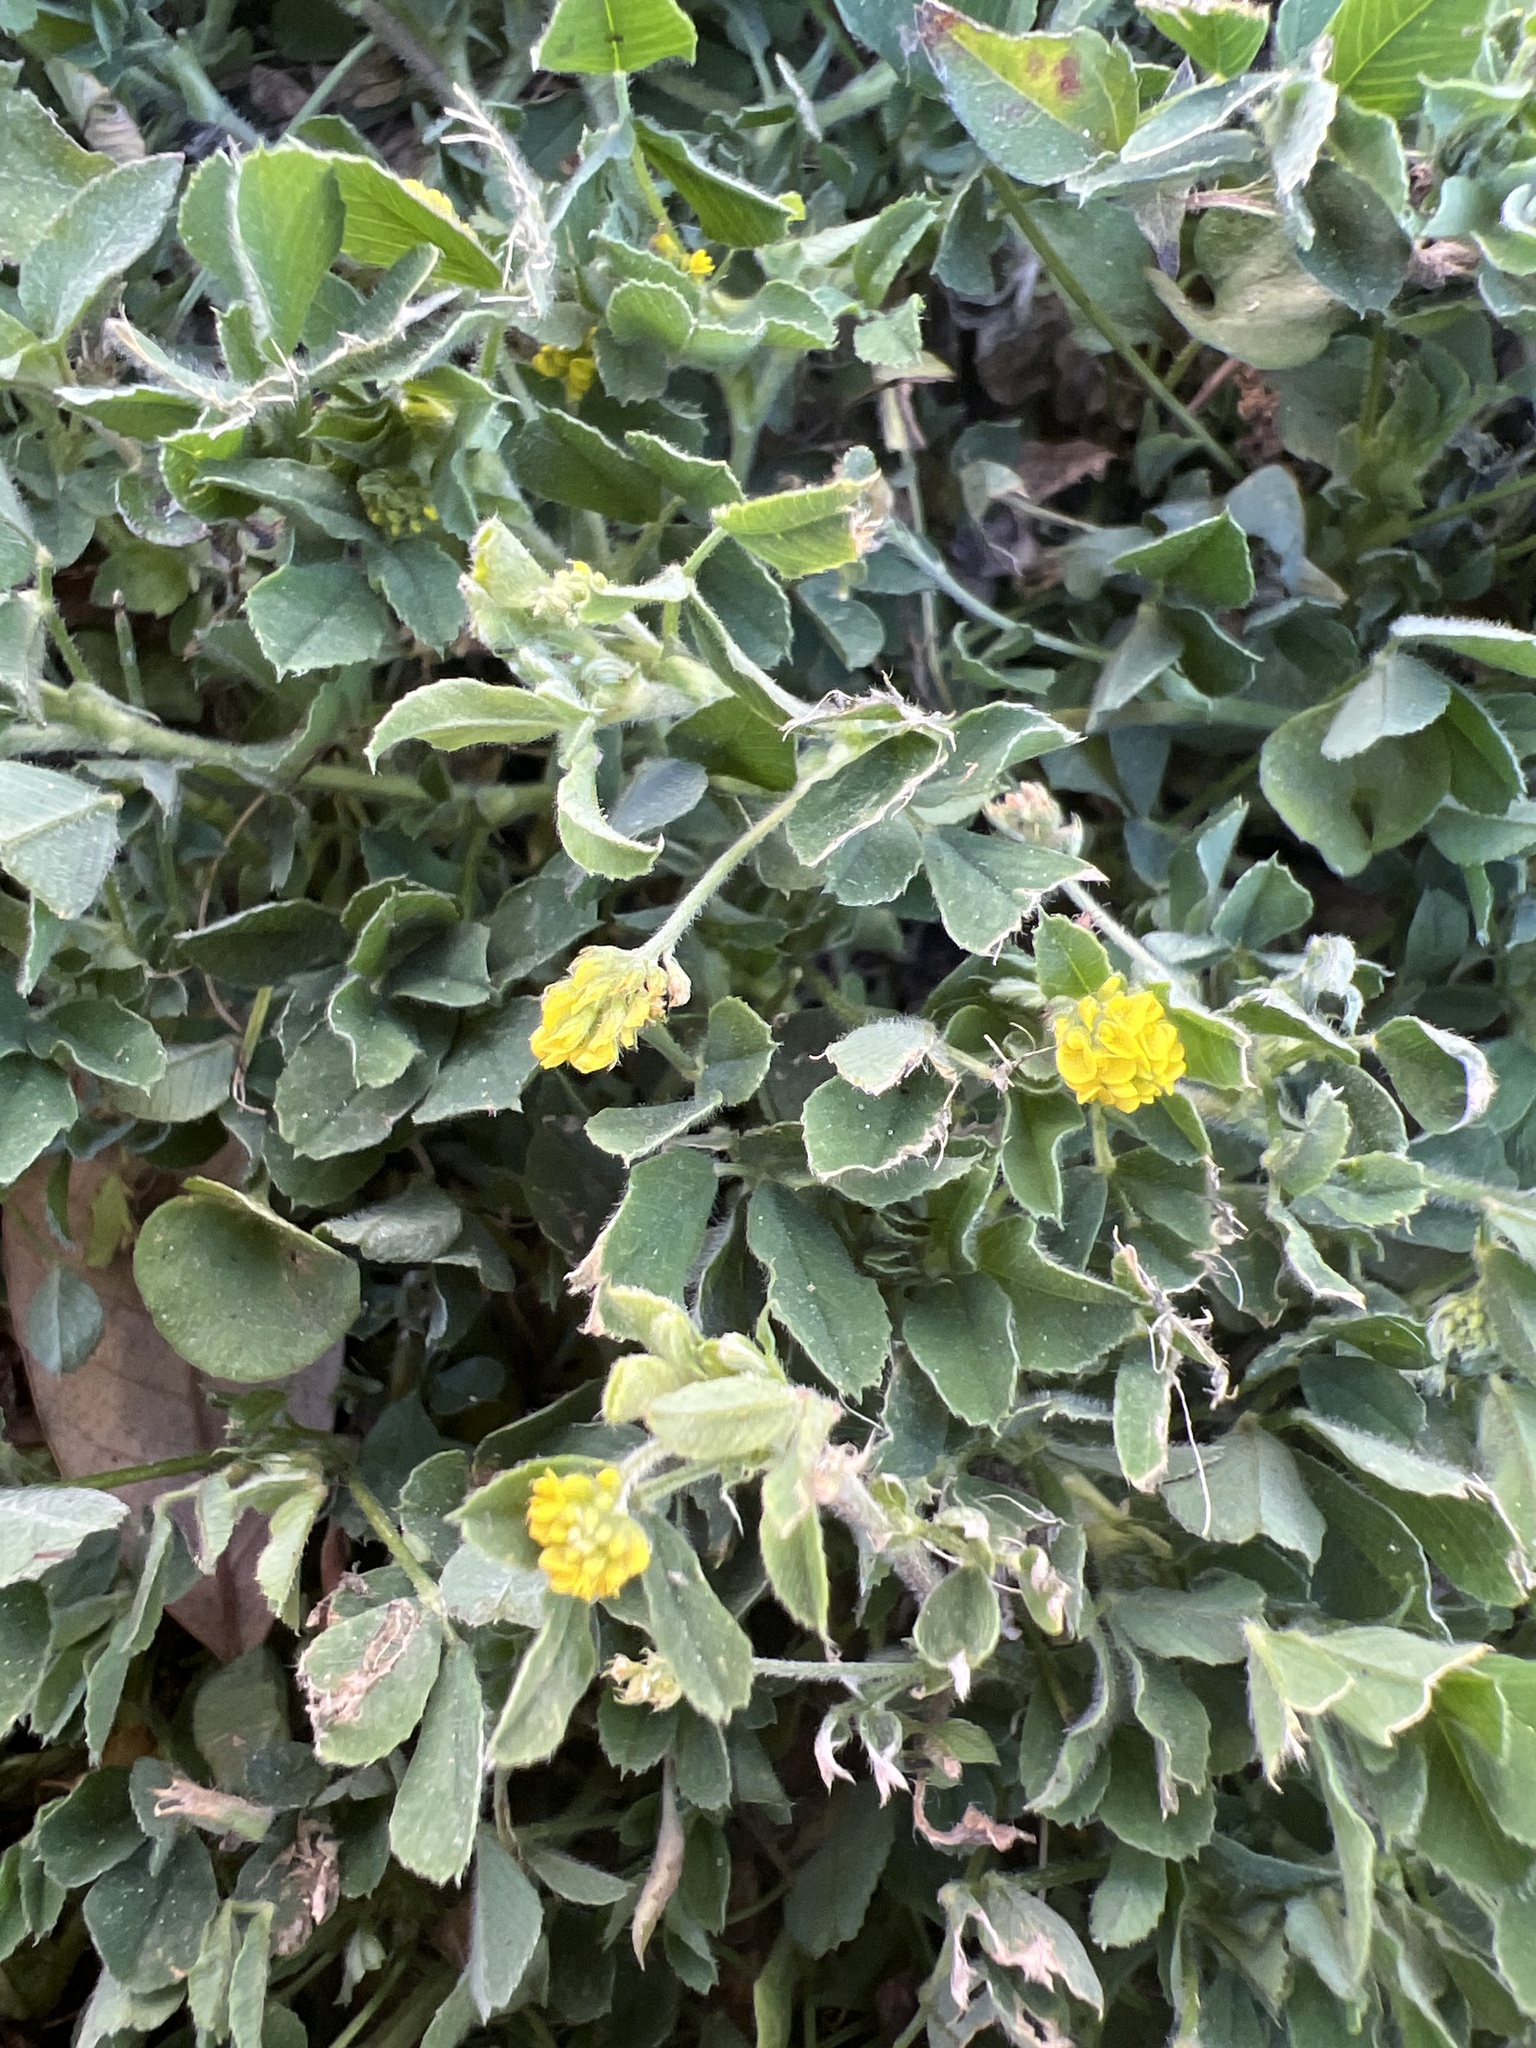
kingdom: Plantae
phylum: Tracheophyta
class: Magnoliopsida
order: Fabales
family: Fabaceae
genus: Medicago
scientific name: Medicago lupulina
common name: Black medick
